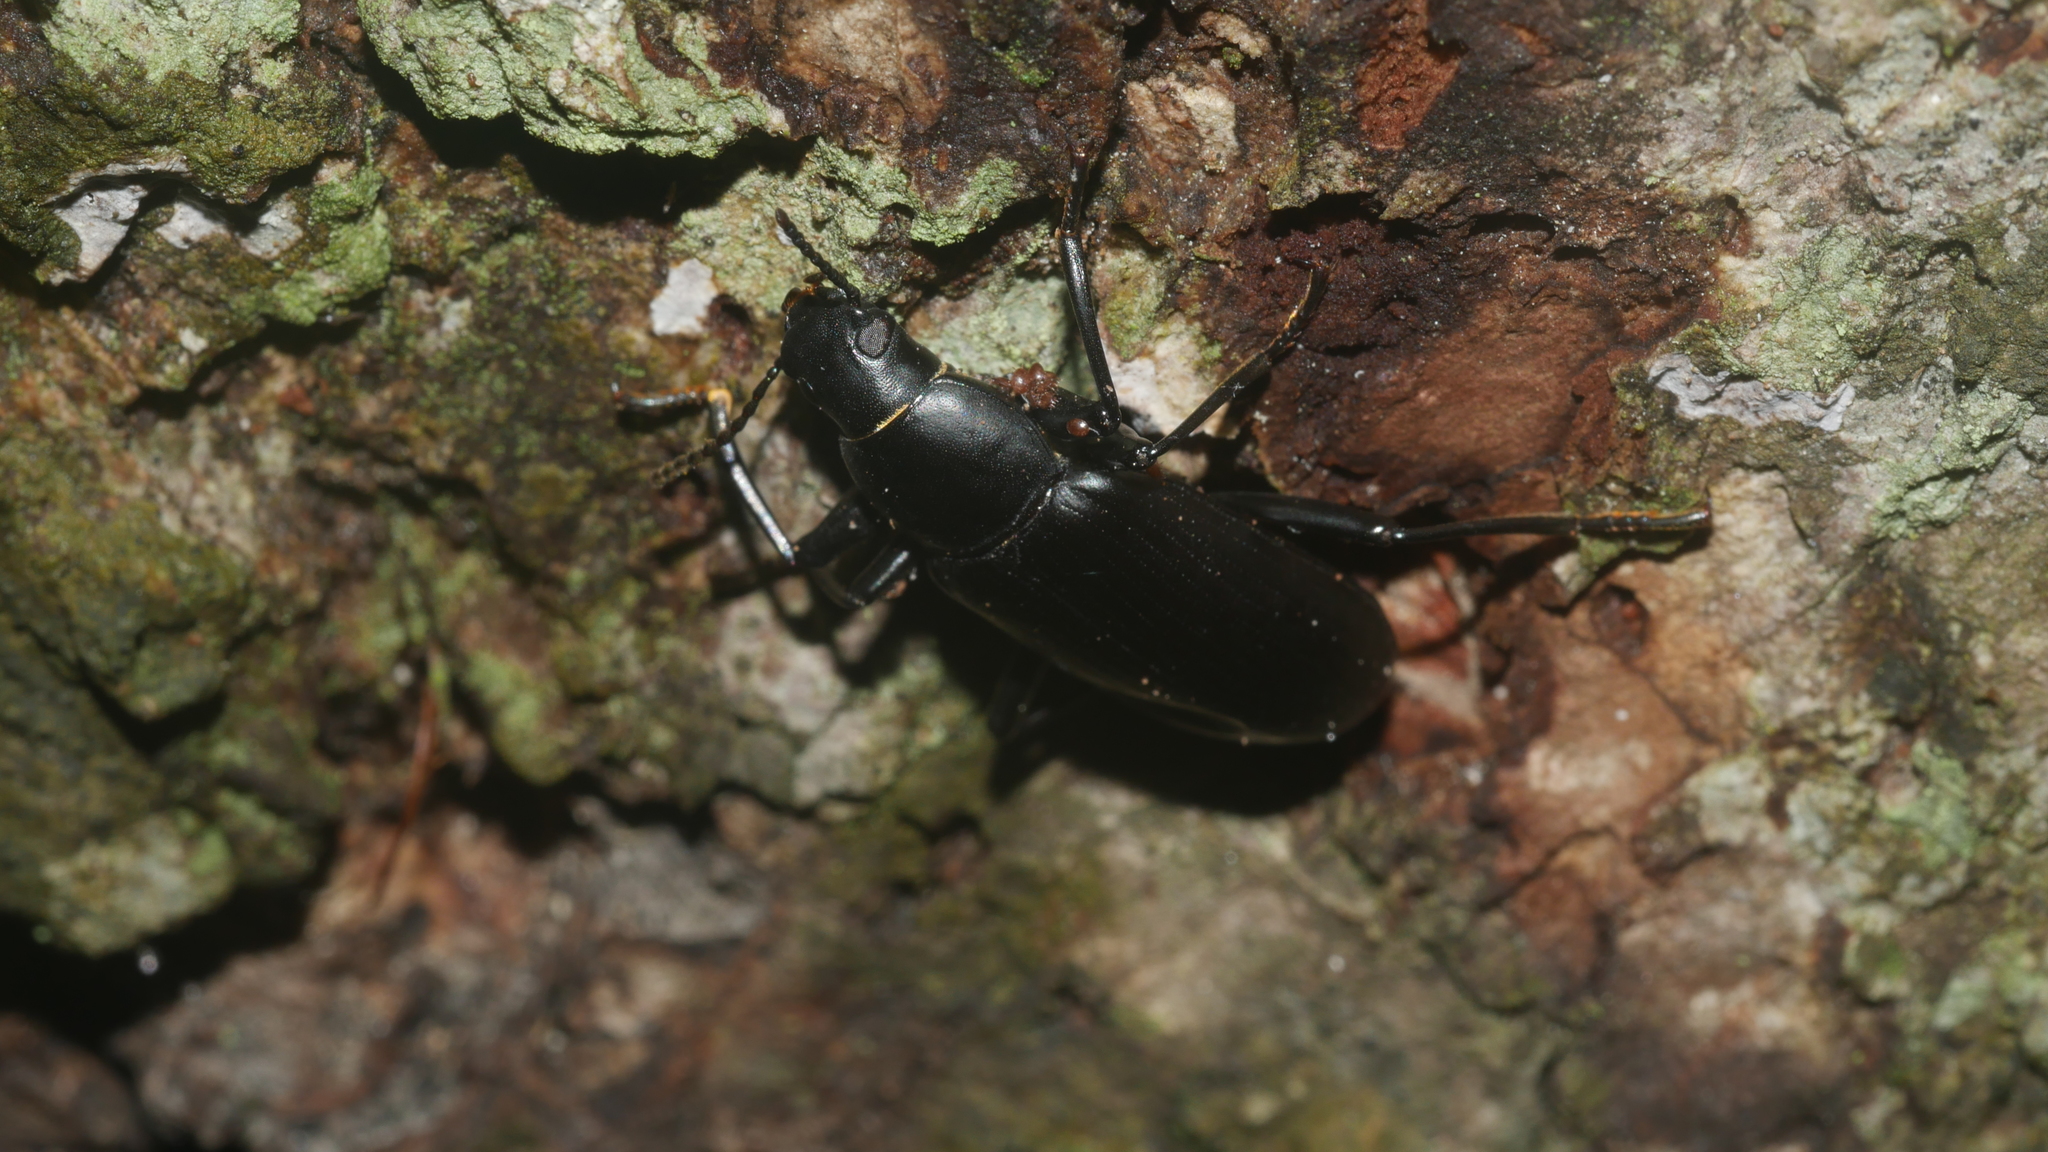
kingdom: Animalia
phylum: Arthropoda
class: Insecta
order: Coleoptera
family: Tenebrionidae
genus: Alobates
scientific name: Alobates
